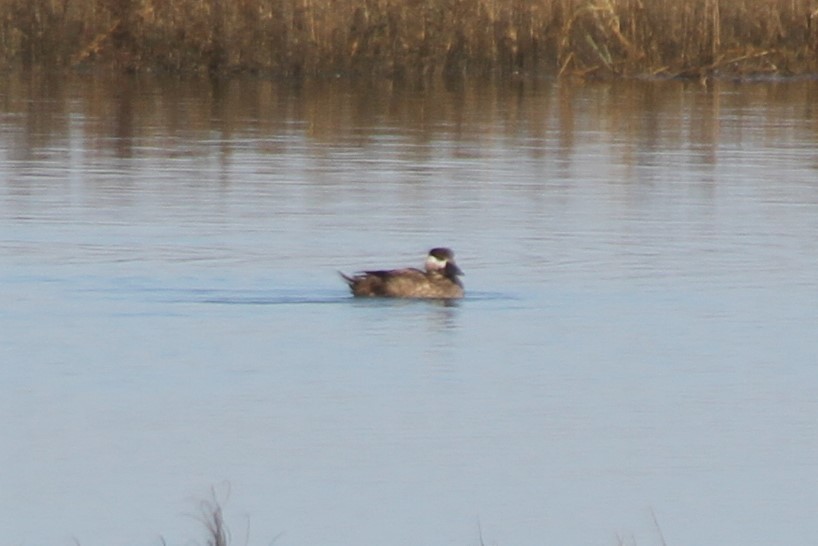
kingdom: Animalia
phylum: Chordata
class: Aves
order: Anseriformes
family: Anatidae
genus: Melanitta
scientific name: Melanitta perspicillata
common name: Surf scoter
